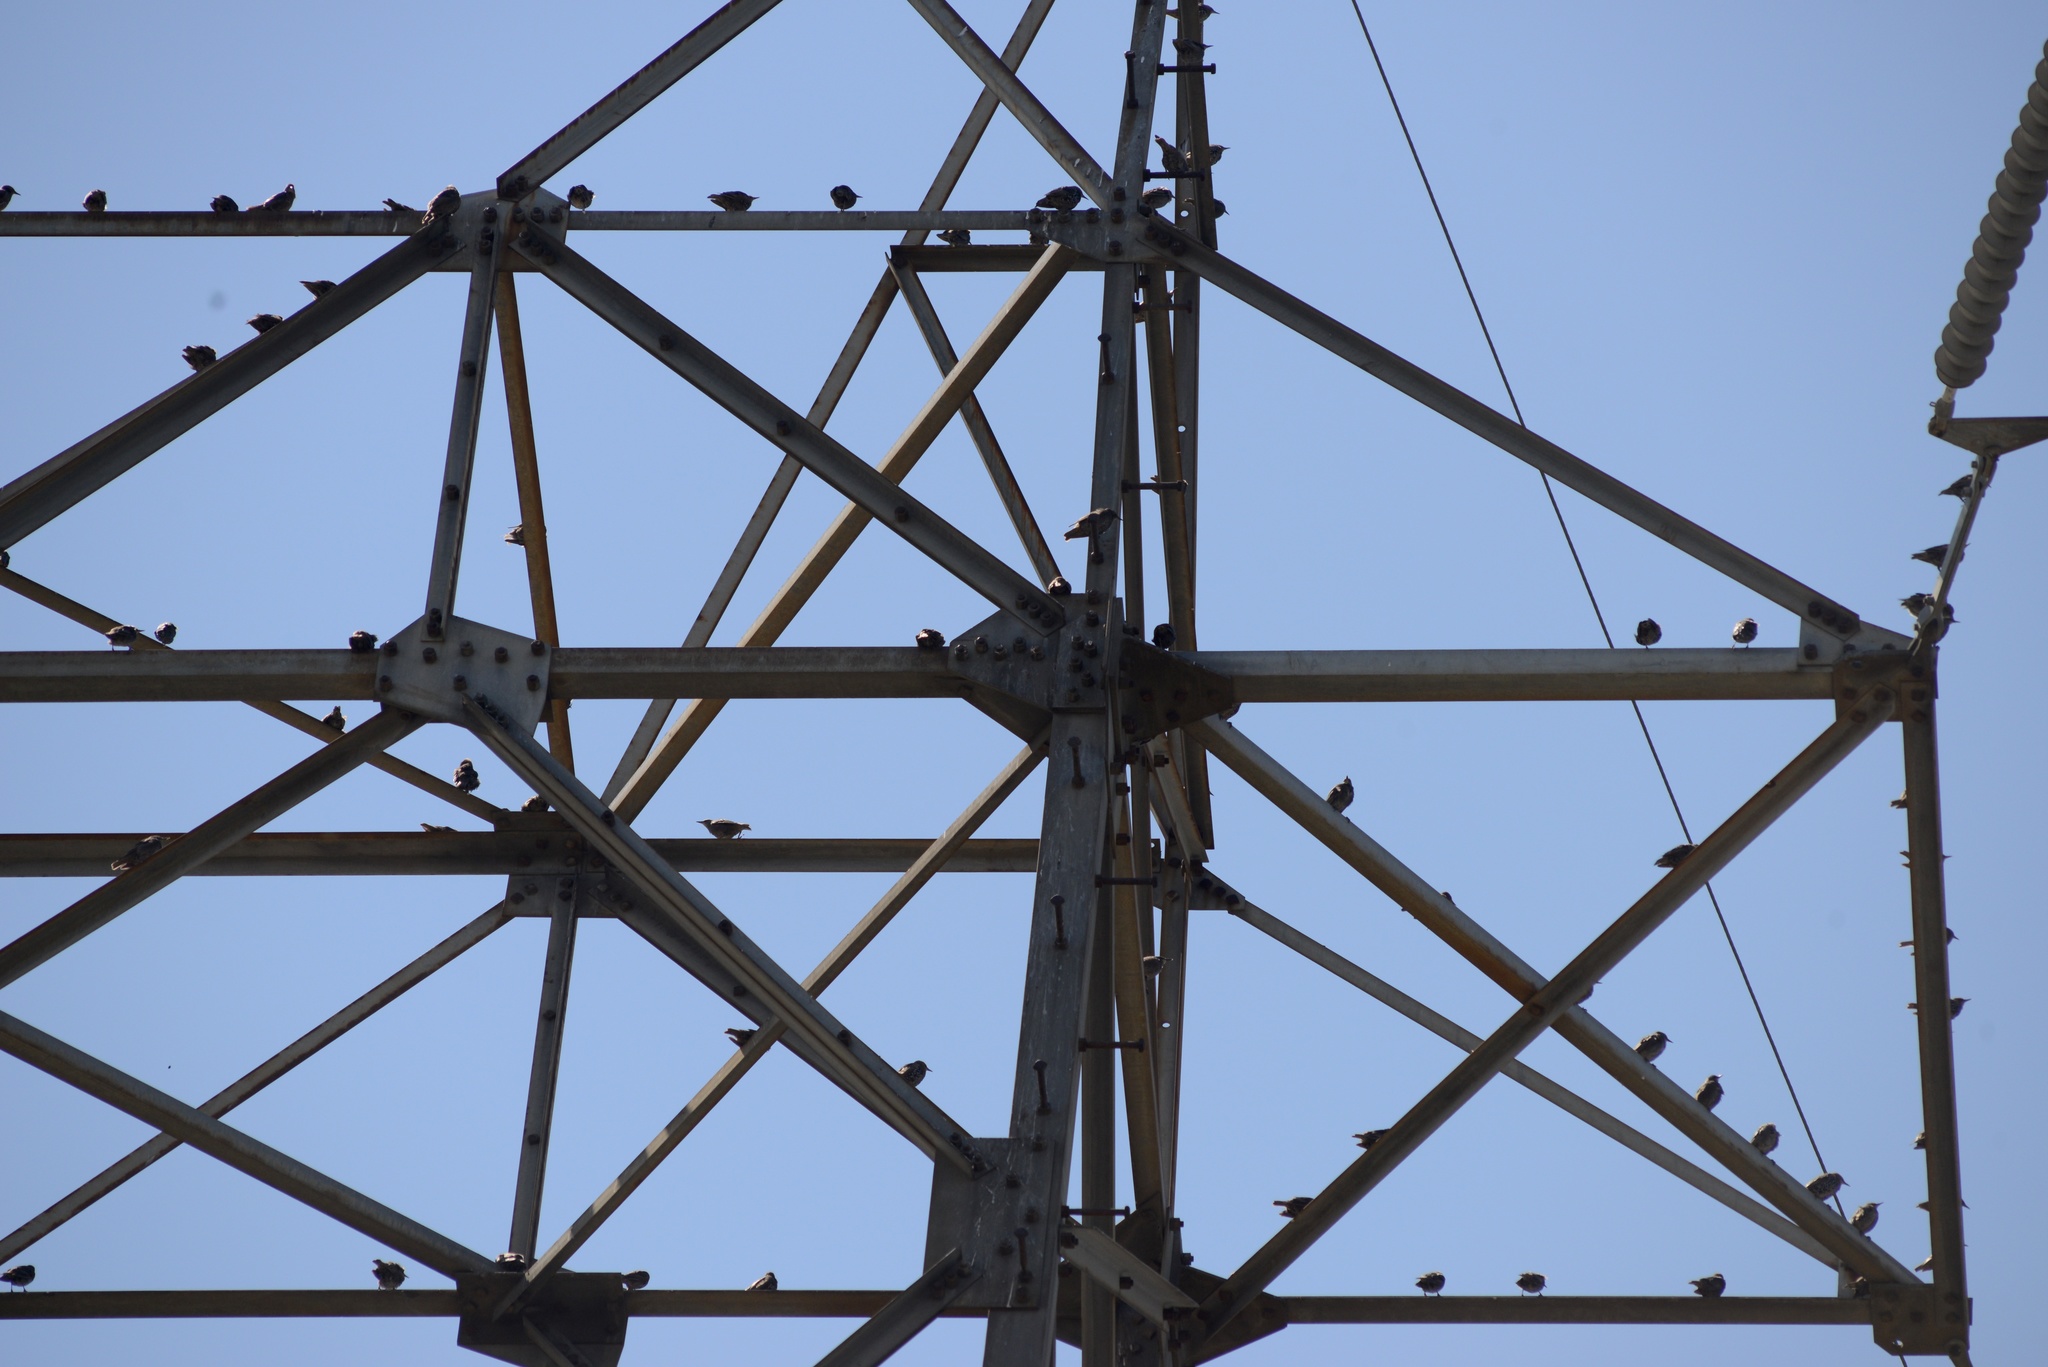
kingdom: Animalia
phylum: Chordata
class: Aves
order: Passeriformes
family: Sturnidae
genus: Sturnus
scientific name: Sturnus vulgaris
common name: Common starling
